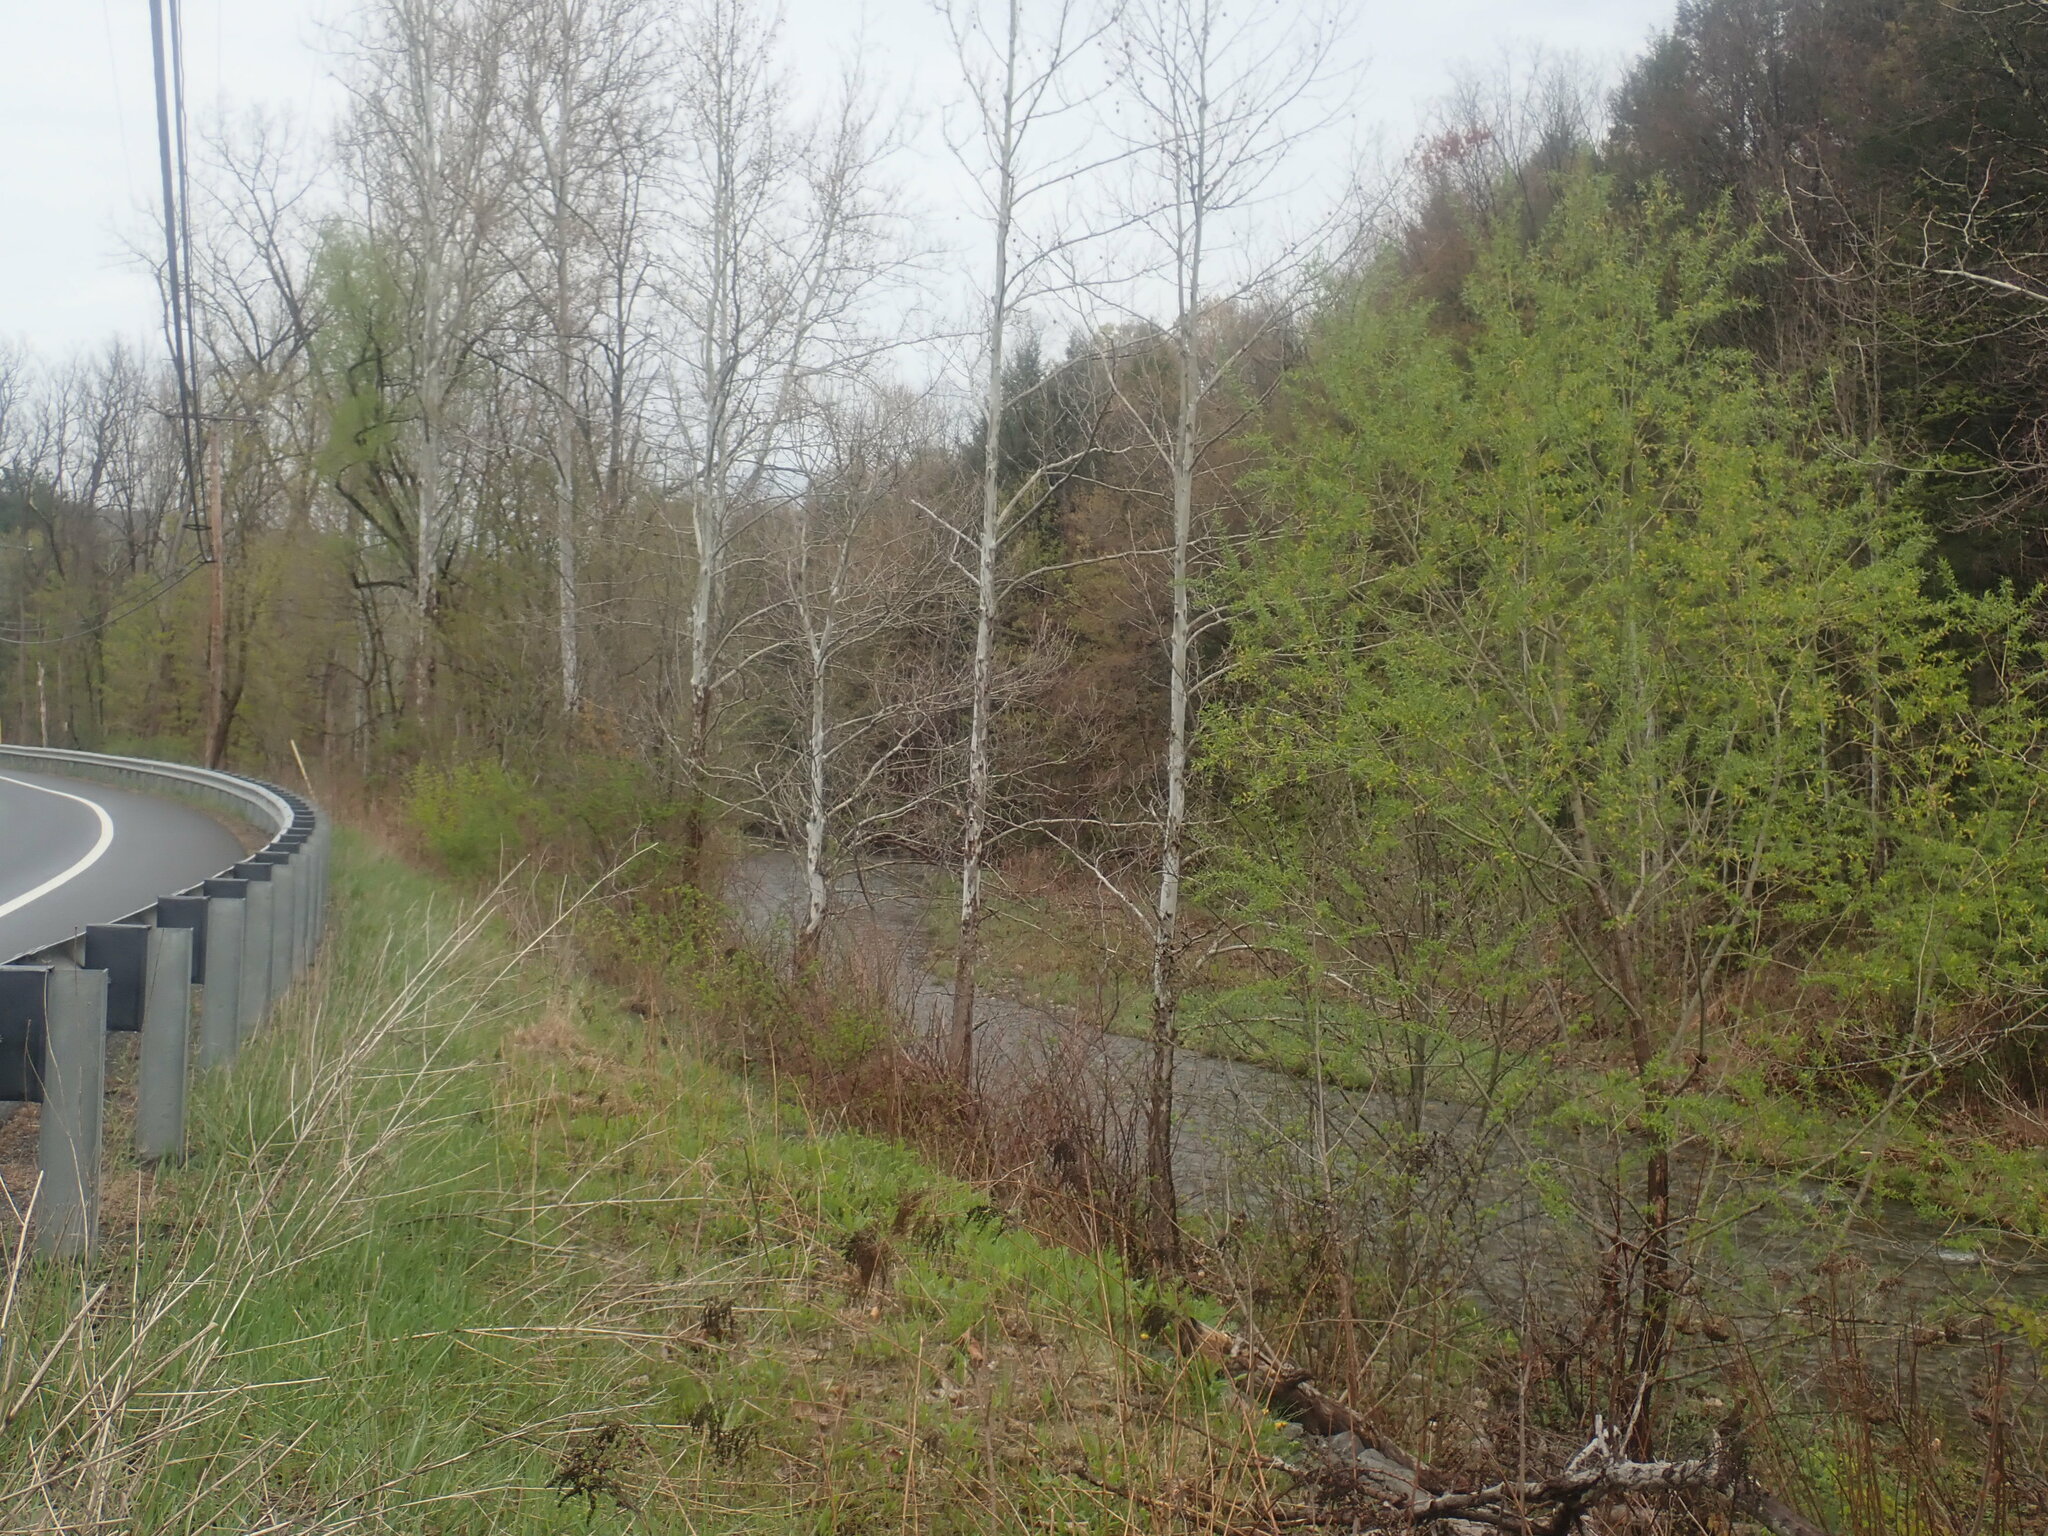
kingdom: Plantae
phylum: Tracheophyta
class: Magnoliopsida
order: Proteales
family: Platanaceae
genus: Platanus
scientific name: Platanus occidentalis
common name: American sycamore
